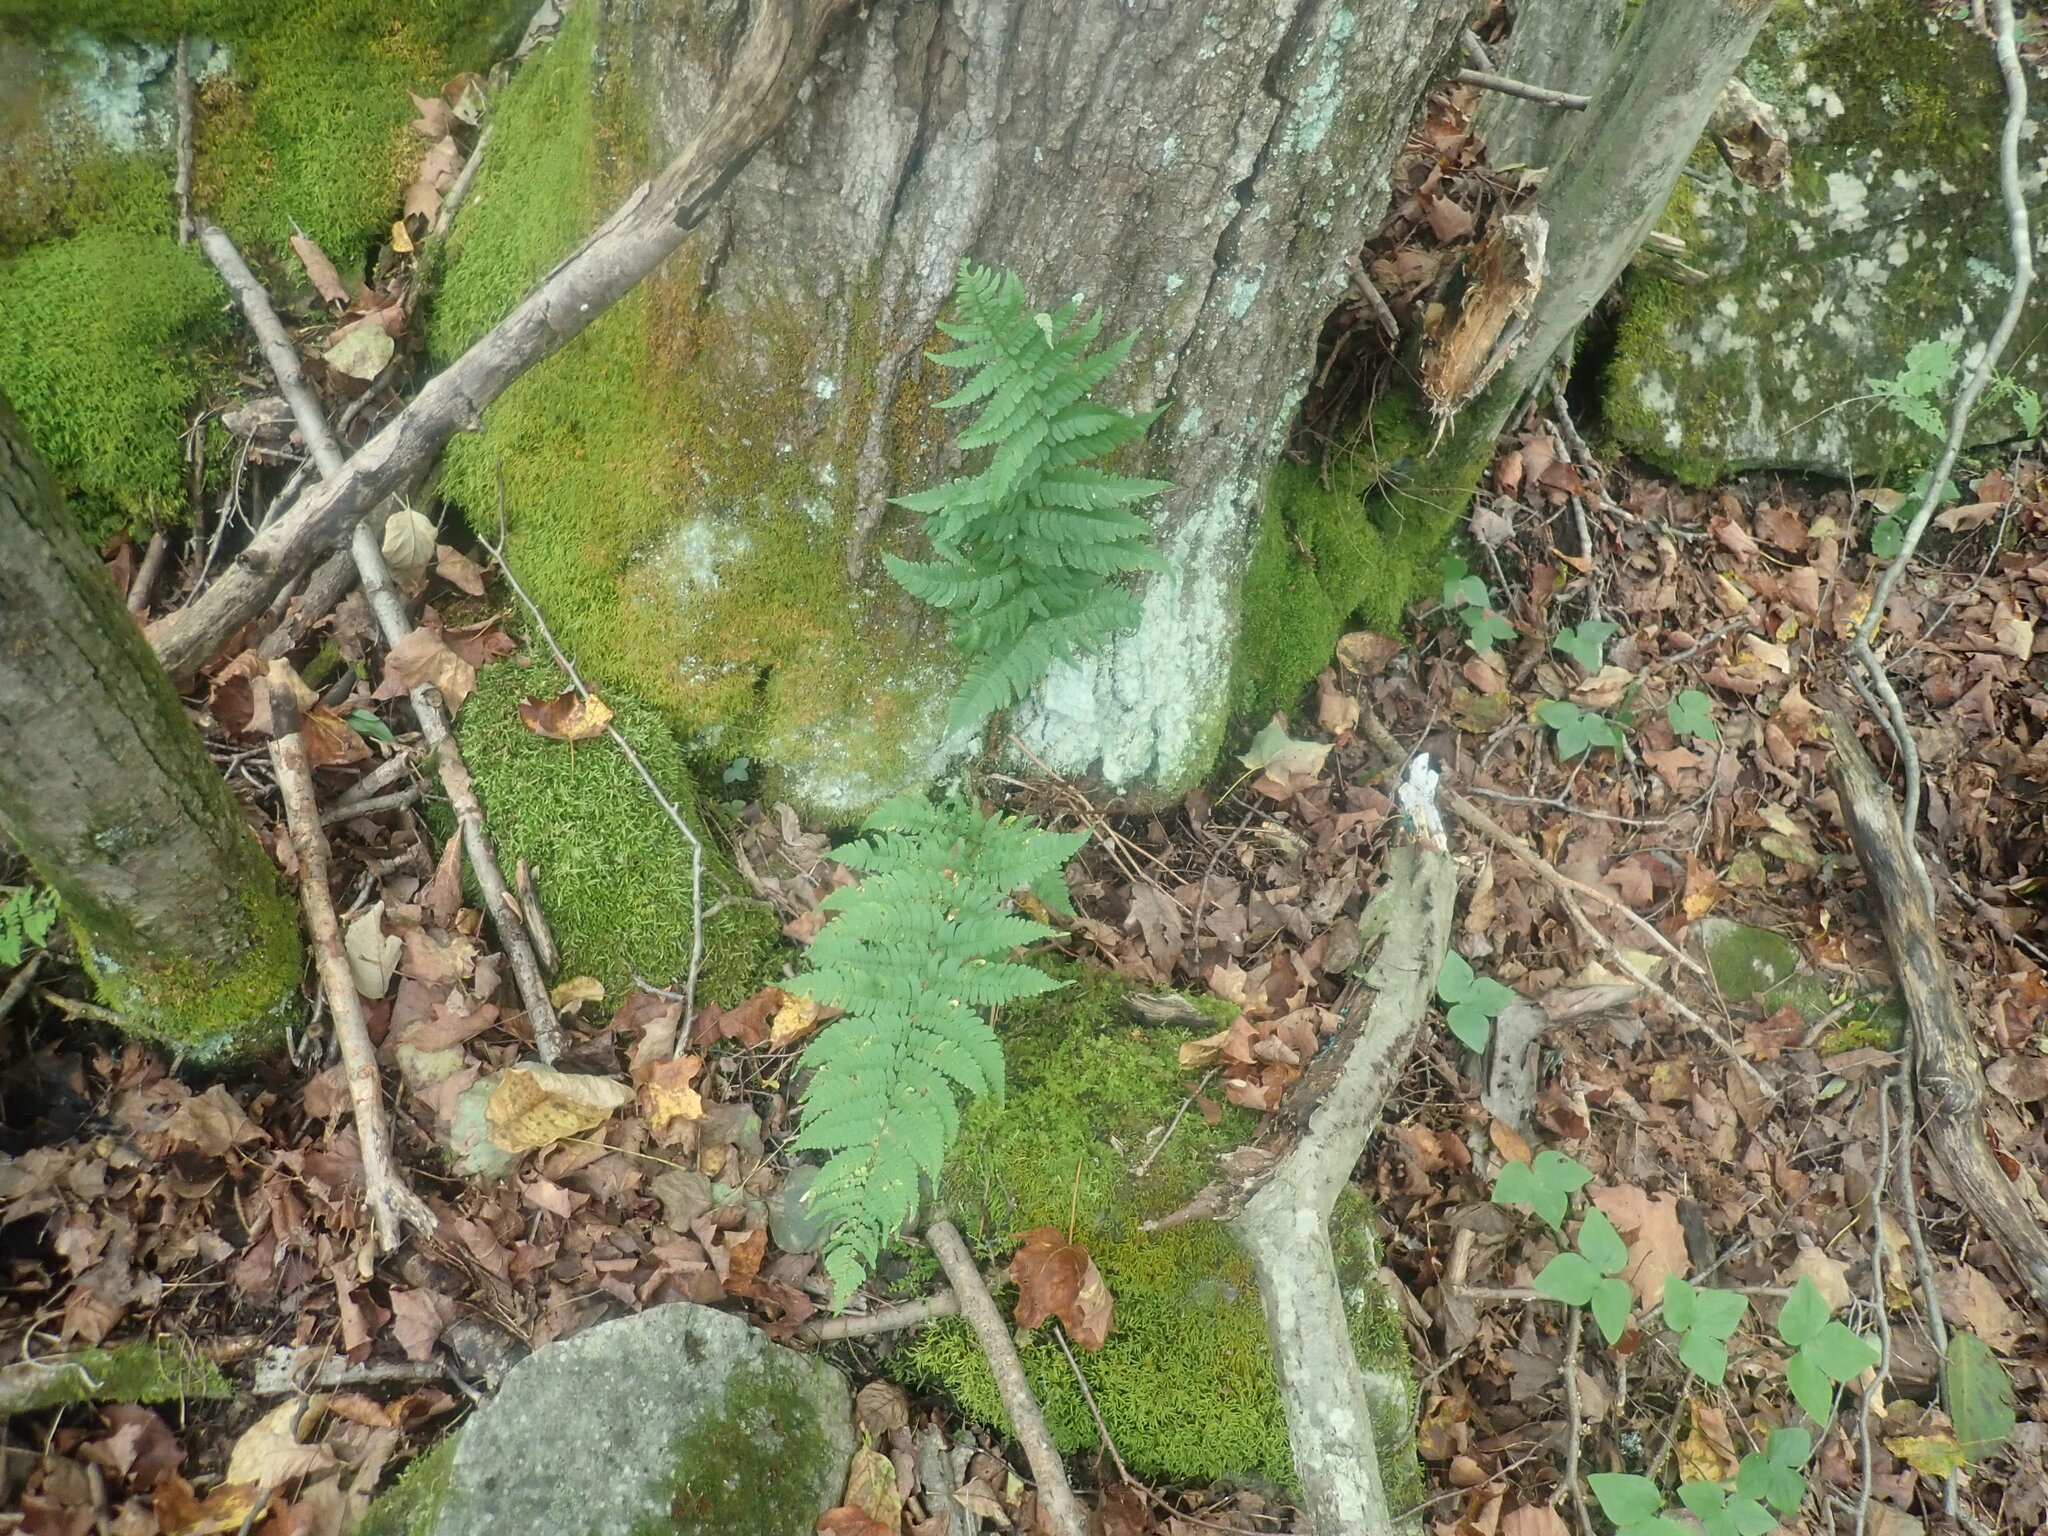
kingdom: Plantae
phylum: Tracheophyta
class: Polypodiopsida
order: Polypodiales
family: Dryopteridaceae
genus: Dryopteris
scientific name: Dryopteris marginalis
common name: Marginal wood fern
